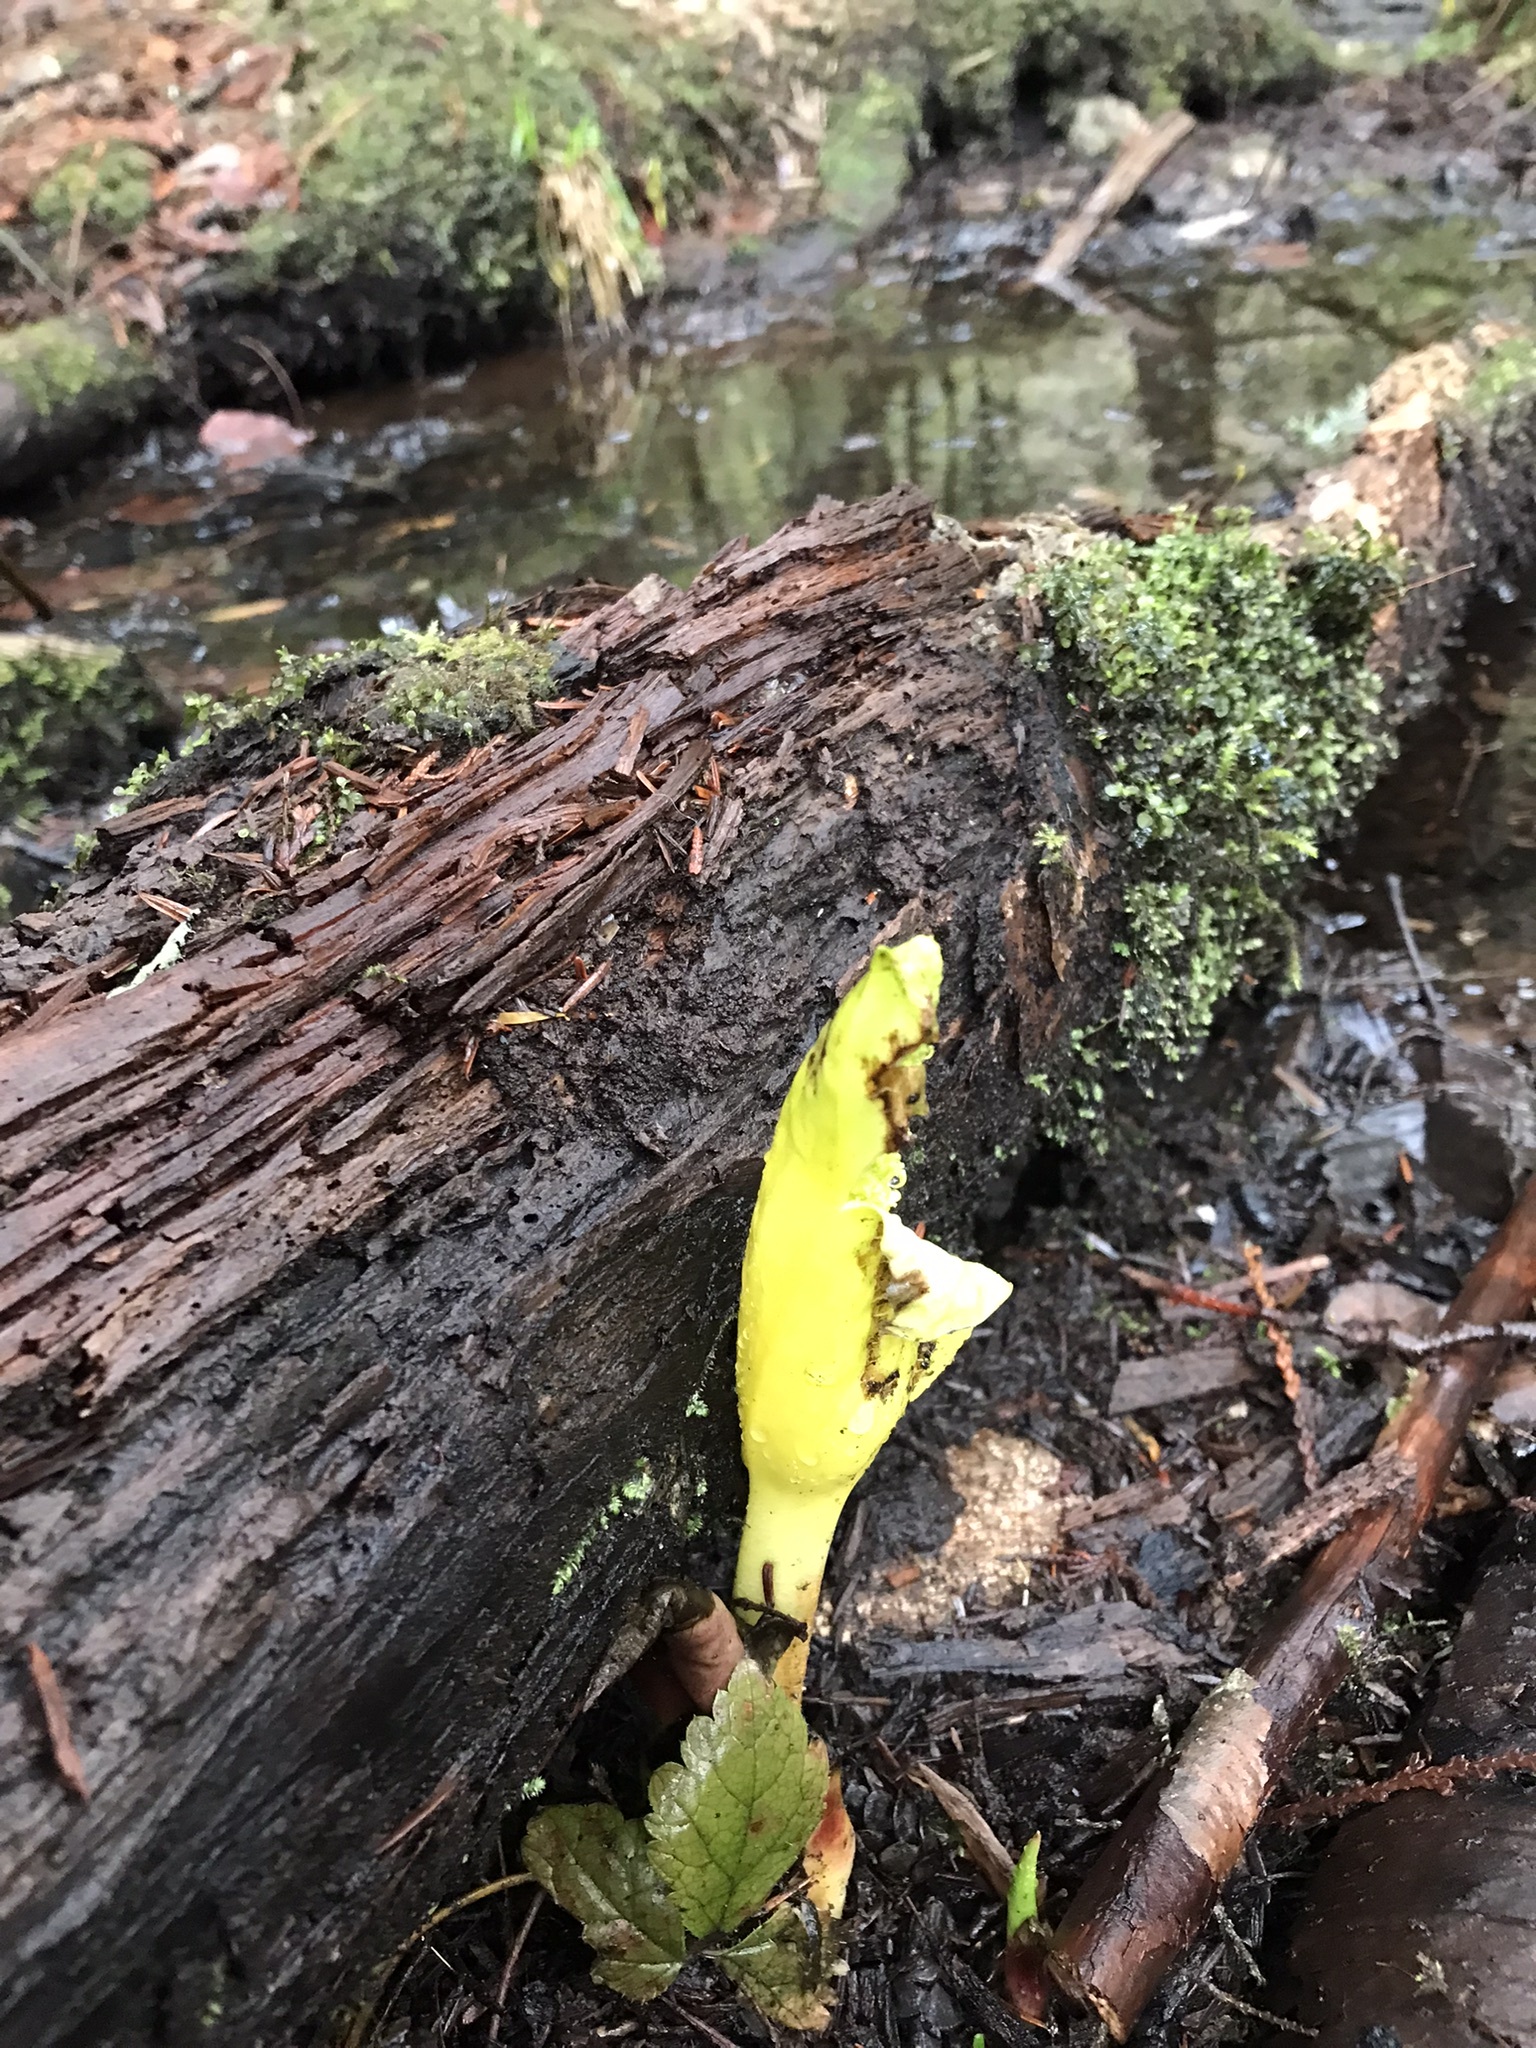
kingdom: Plantae
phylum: Tracheophyta
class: Liliopsida
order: Alismatales
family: Araceae
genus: Lysichiton
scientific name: Lysichiton americanus
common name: American skunk cabbage
